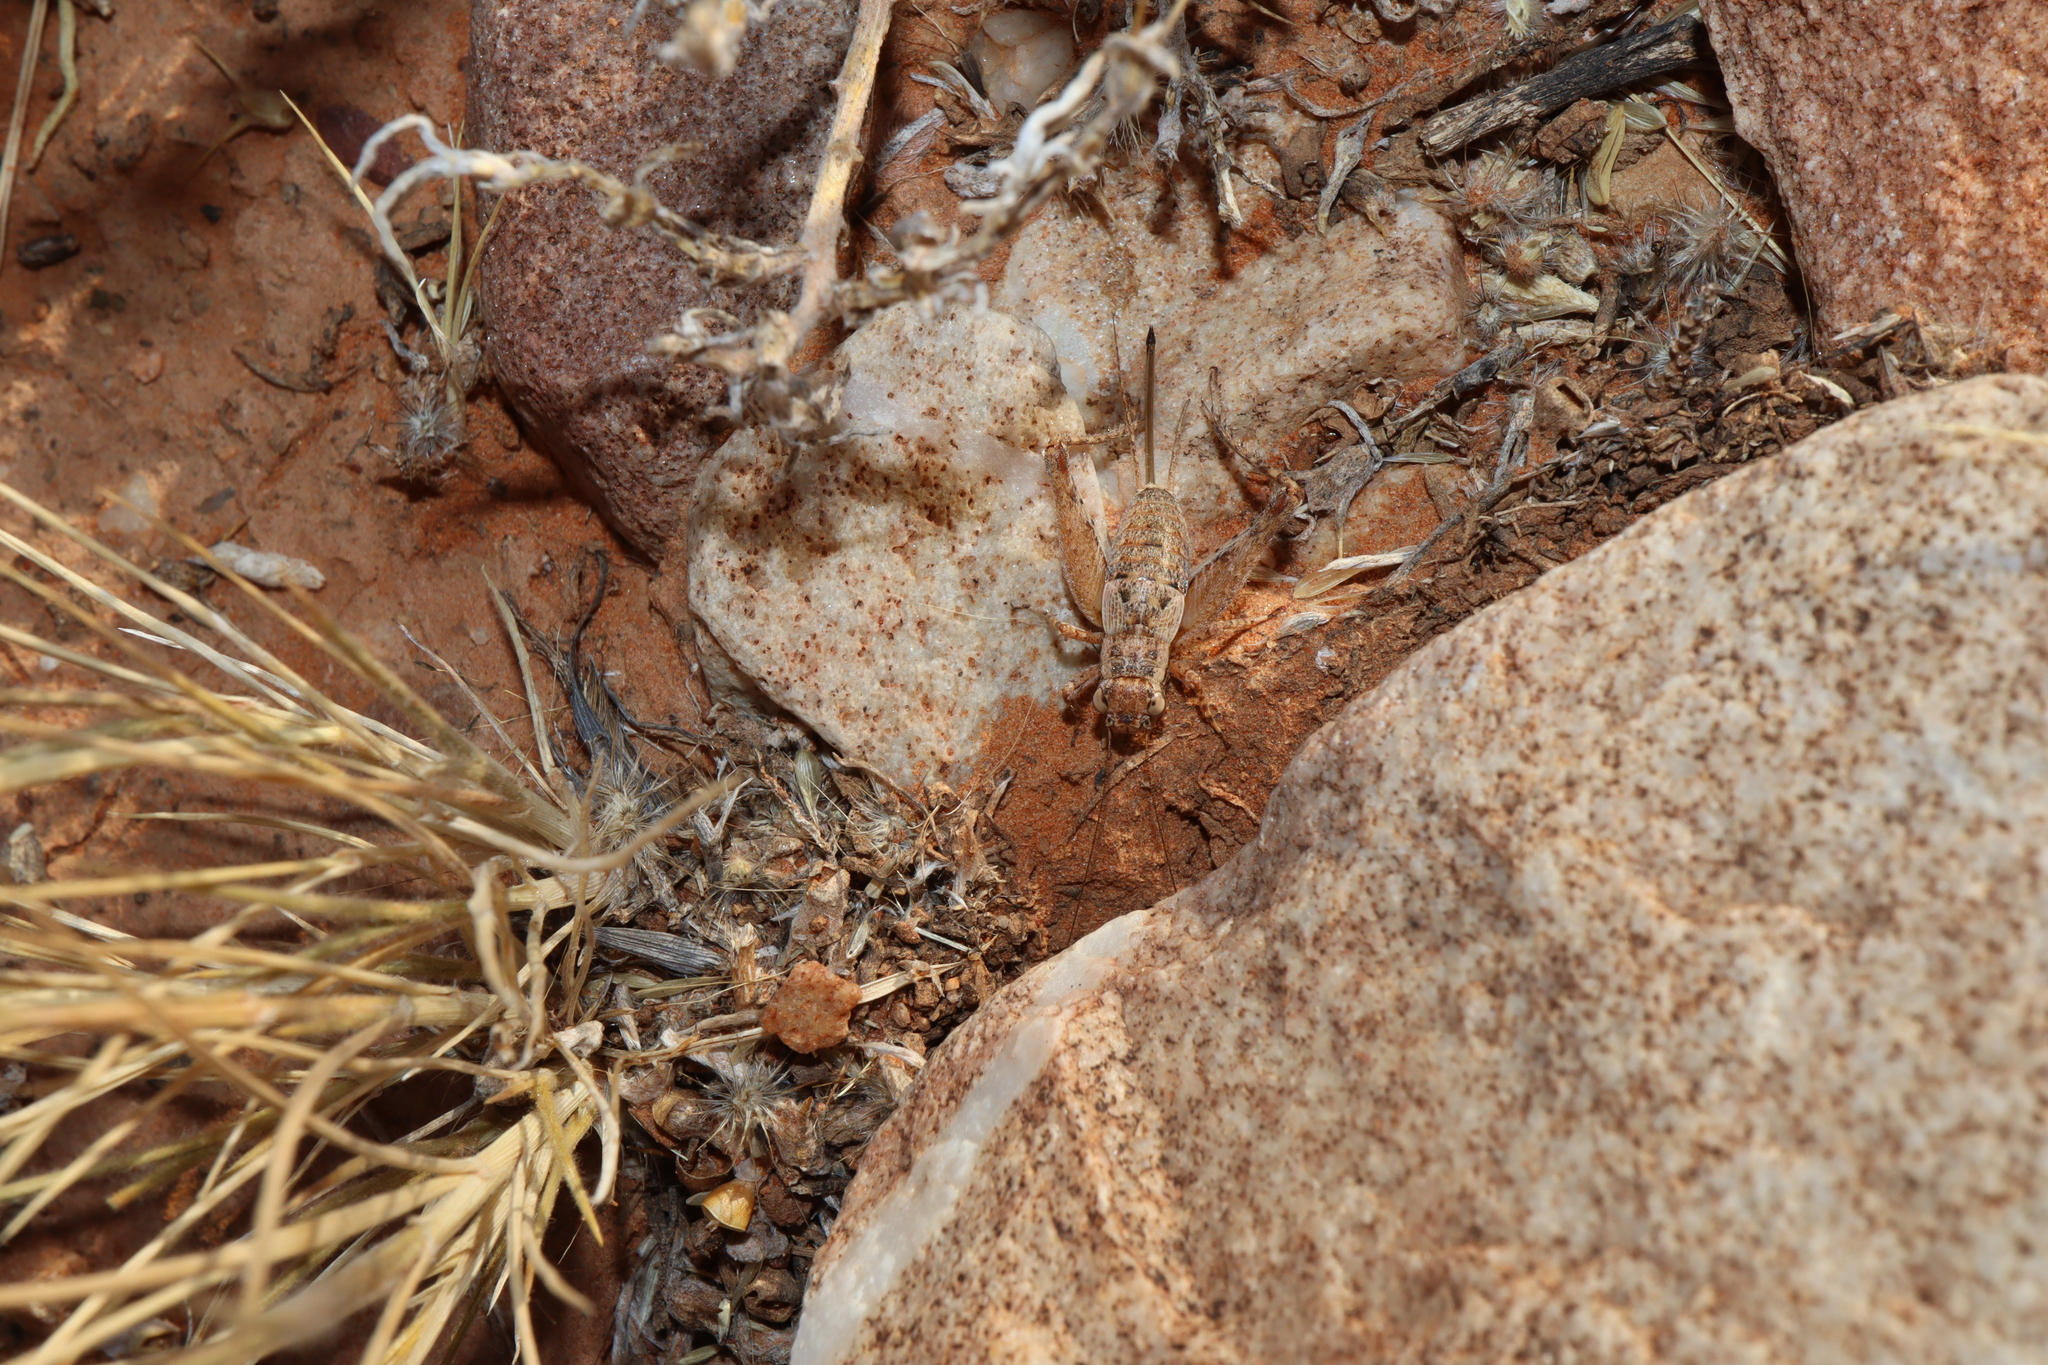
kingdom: Animalia
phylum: Arthropoda
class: Insecta
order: Orthoptera
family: Gryllidae
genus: Eurepella
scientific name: Eurepella ballina
